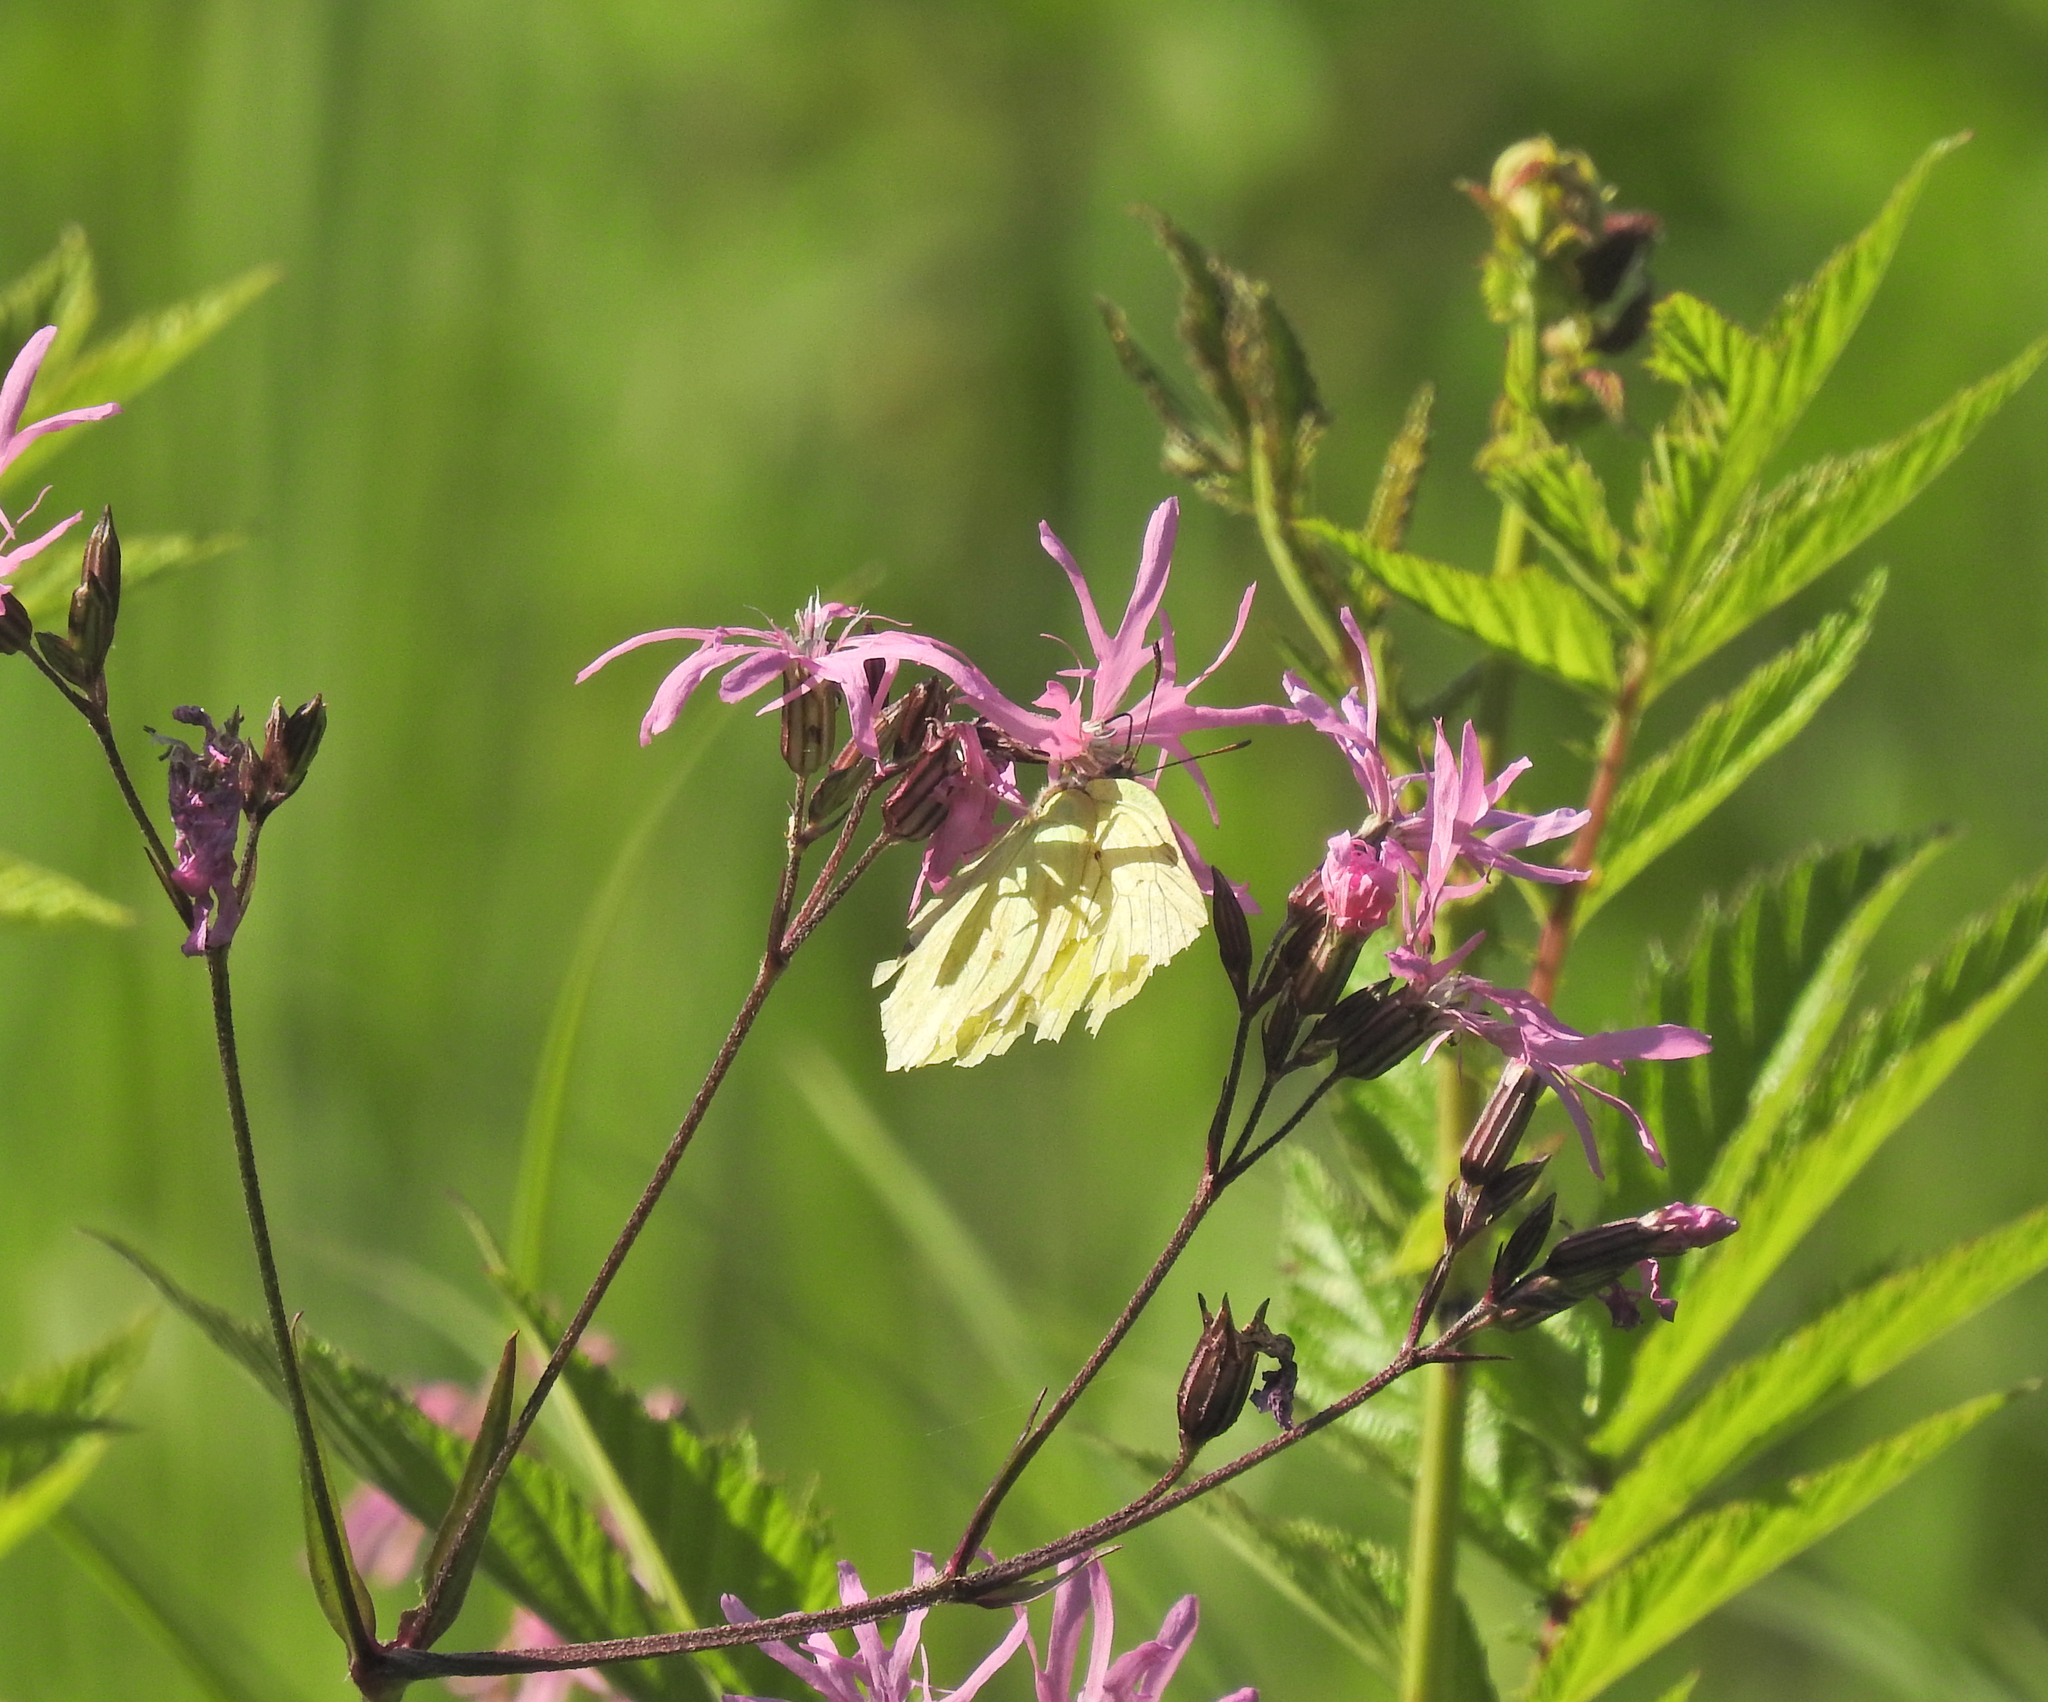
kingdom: Animalia
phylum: Arthropoda
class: Insecta
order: Lepidoptera
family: Pieridae
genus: Gonepteryx
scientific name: Gonepteryx rhamni
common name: Brimstone
